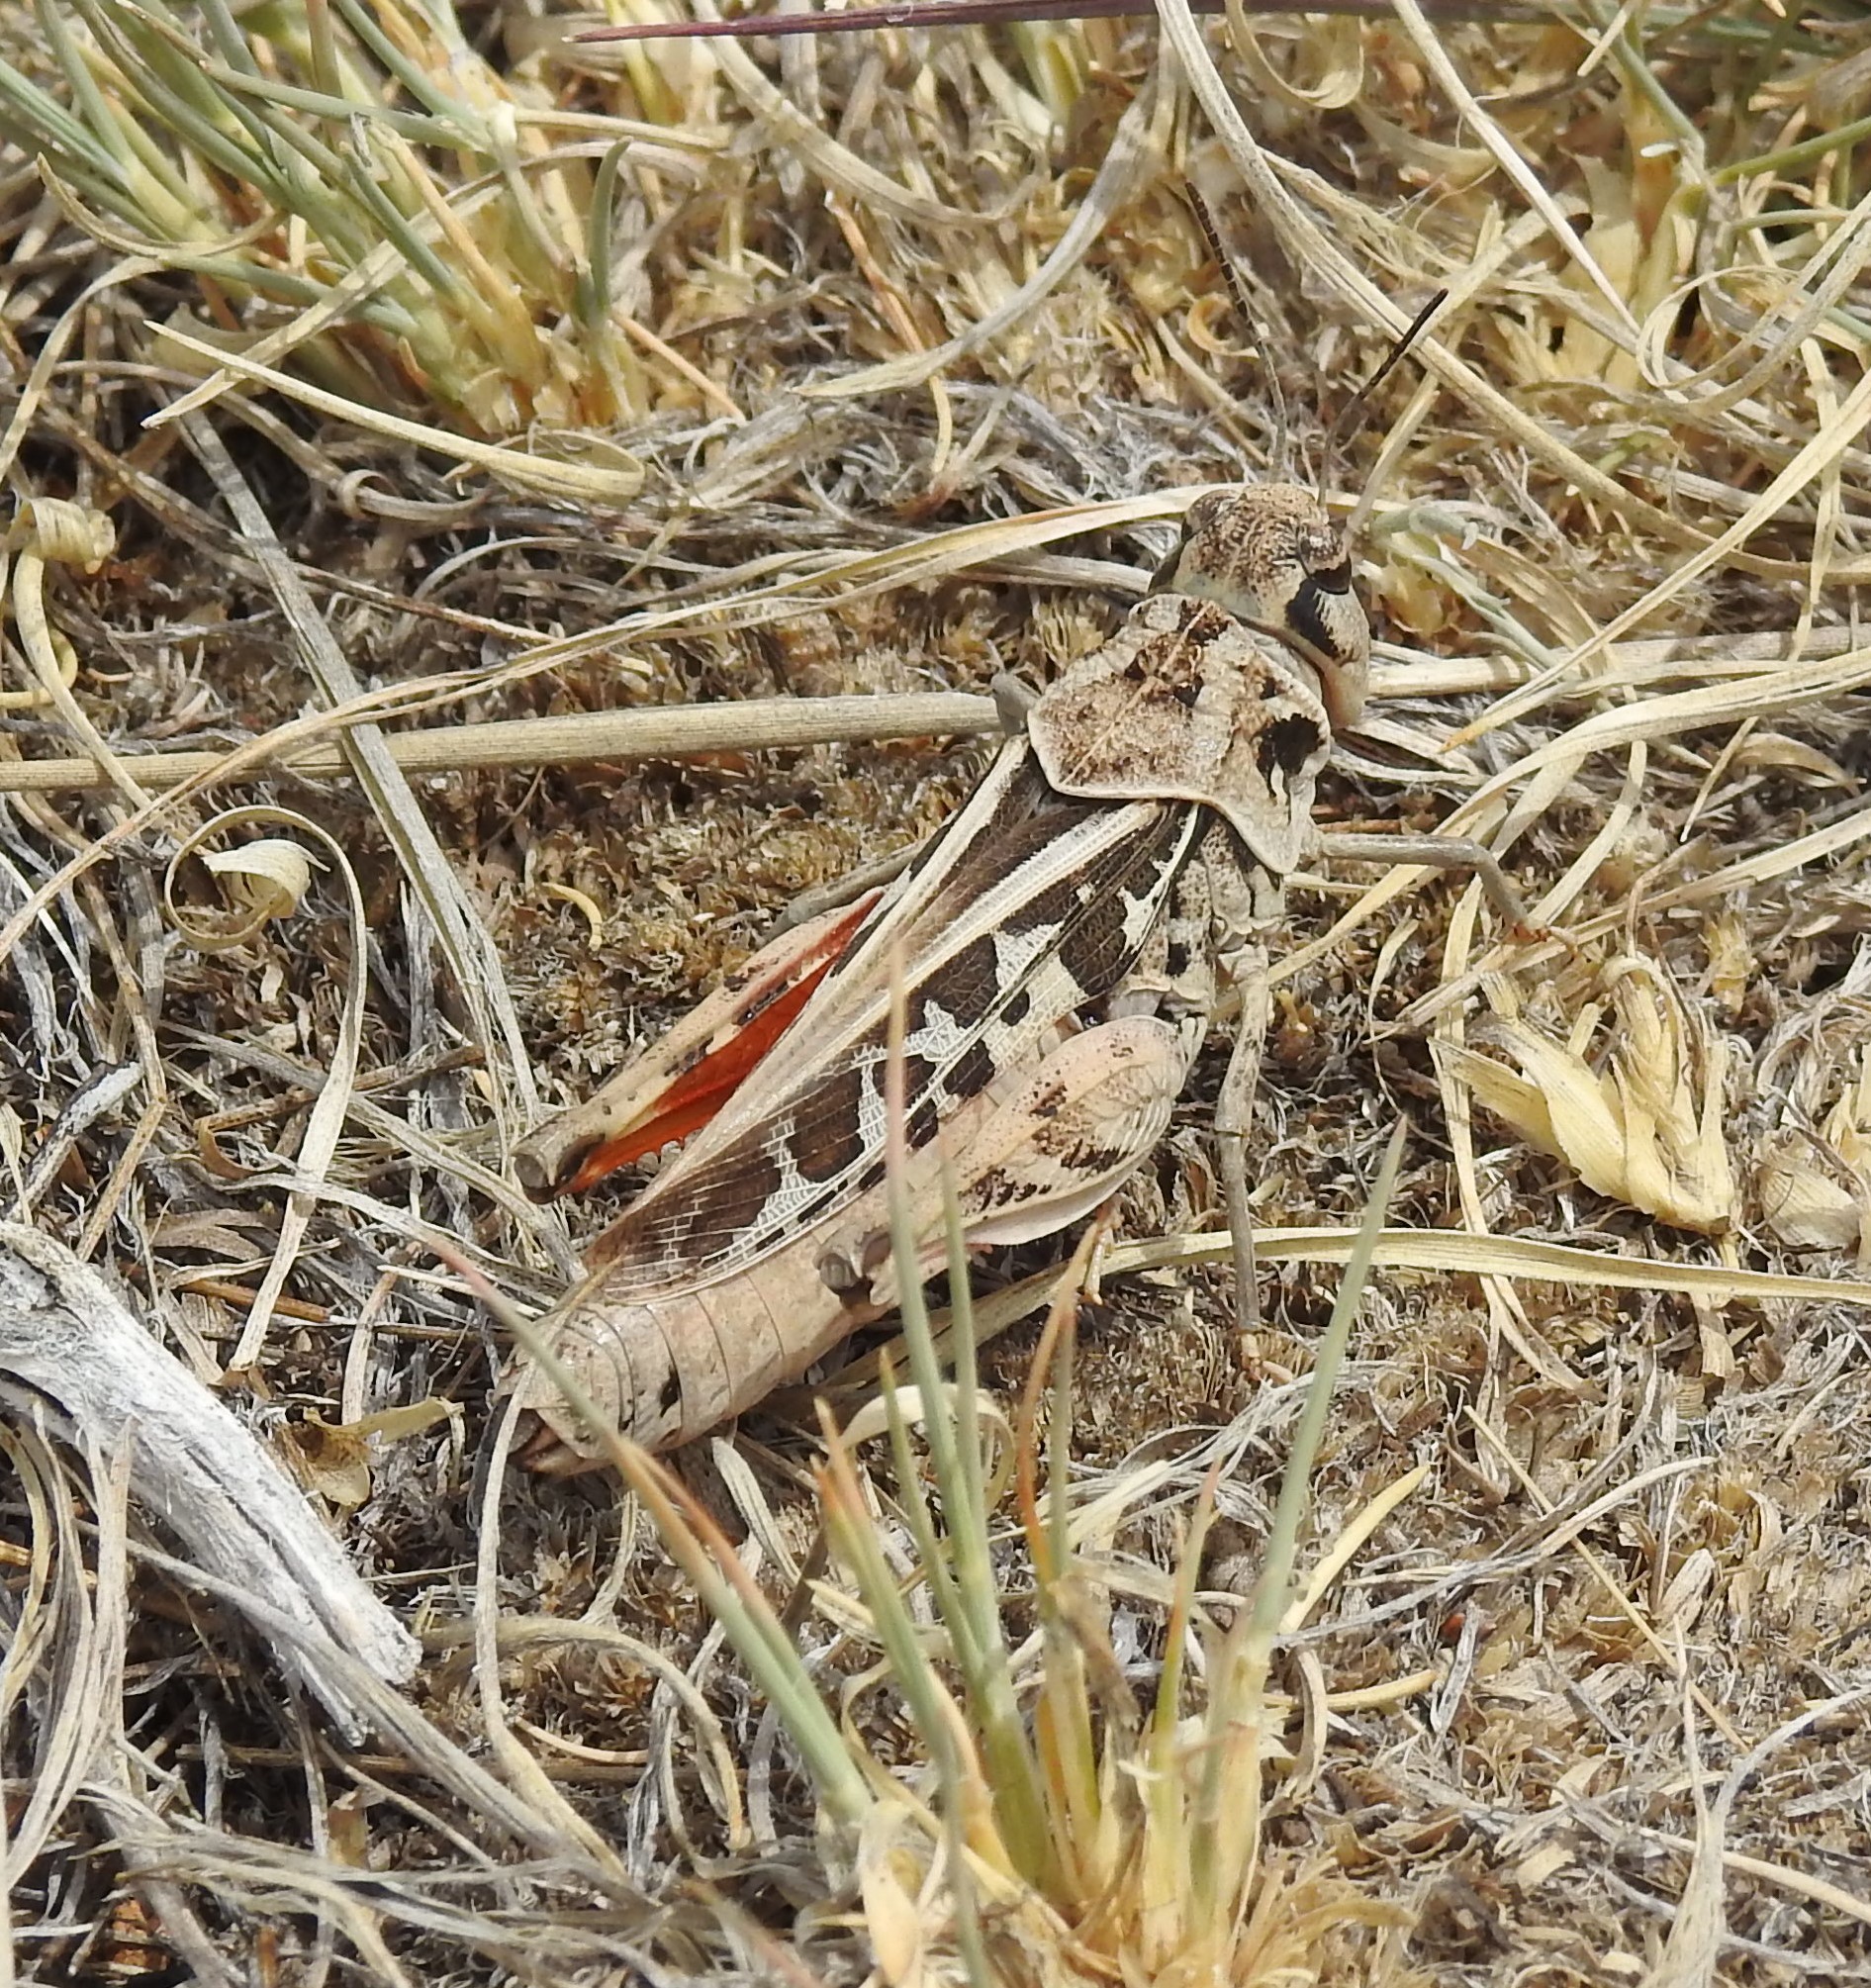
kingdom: Animalia
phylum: Arthropoda
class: Insecta
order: Orthoptera
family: Acrididae
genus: Xanthippus
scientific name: Xanthippus corallipes
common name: Redshanked grasshopper
